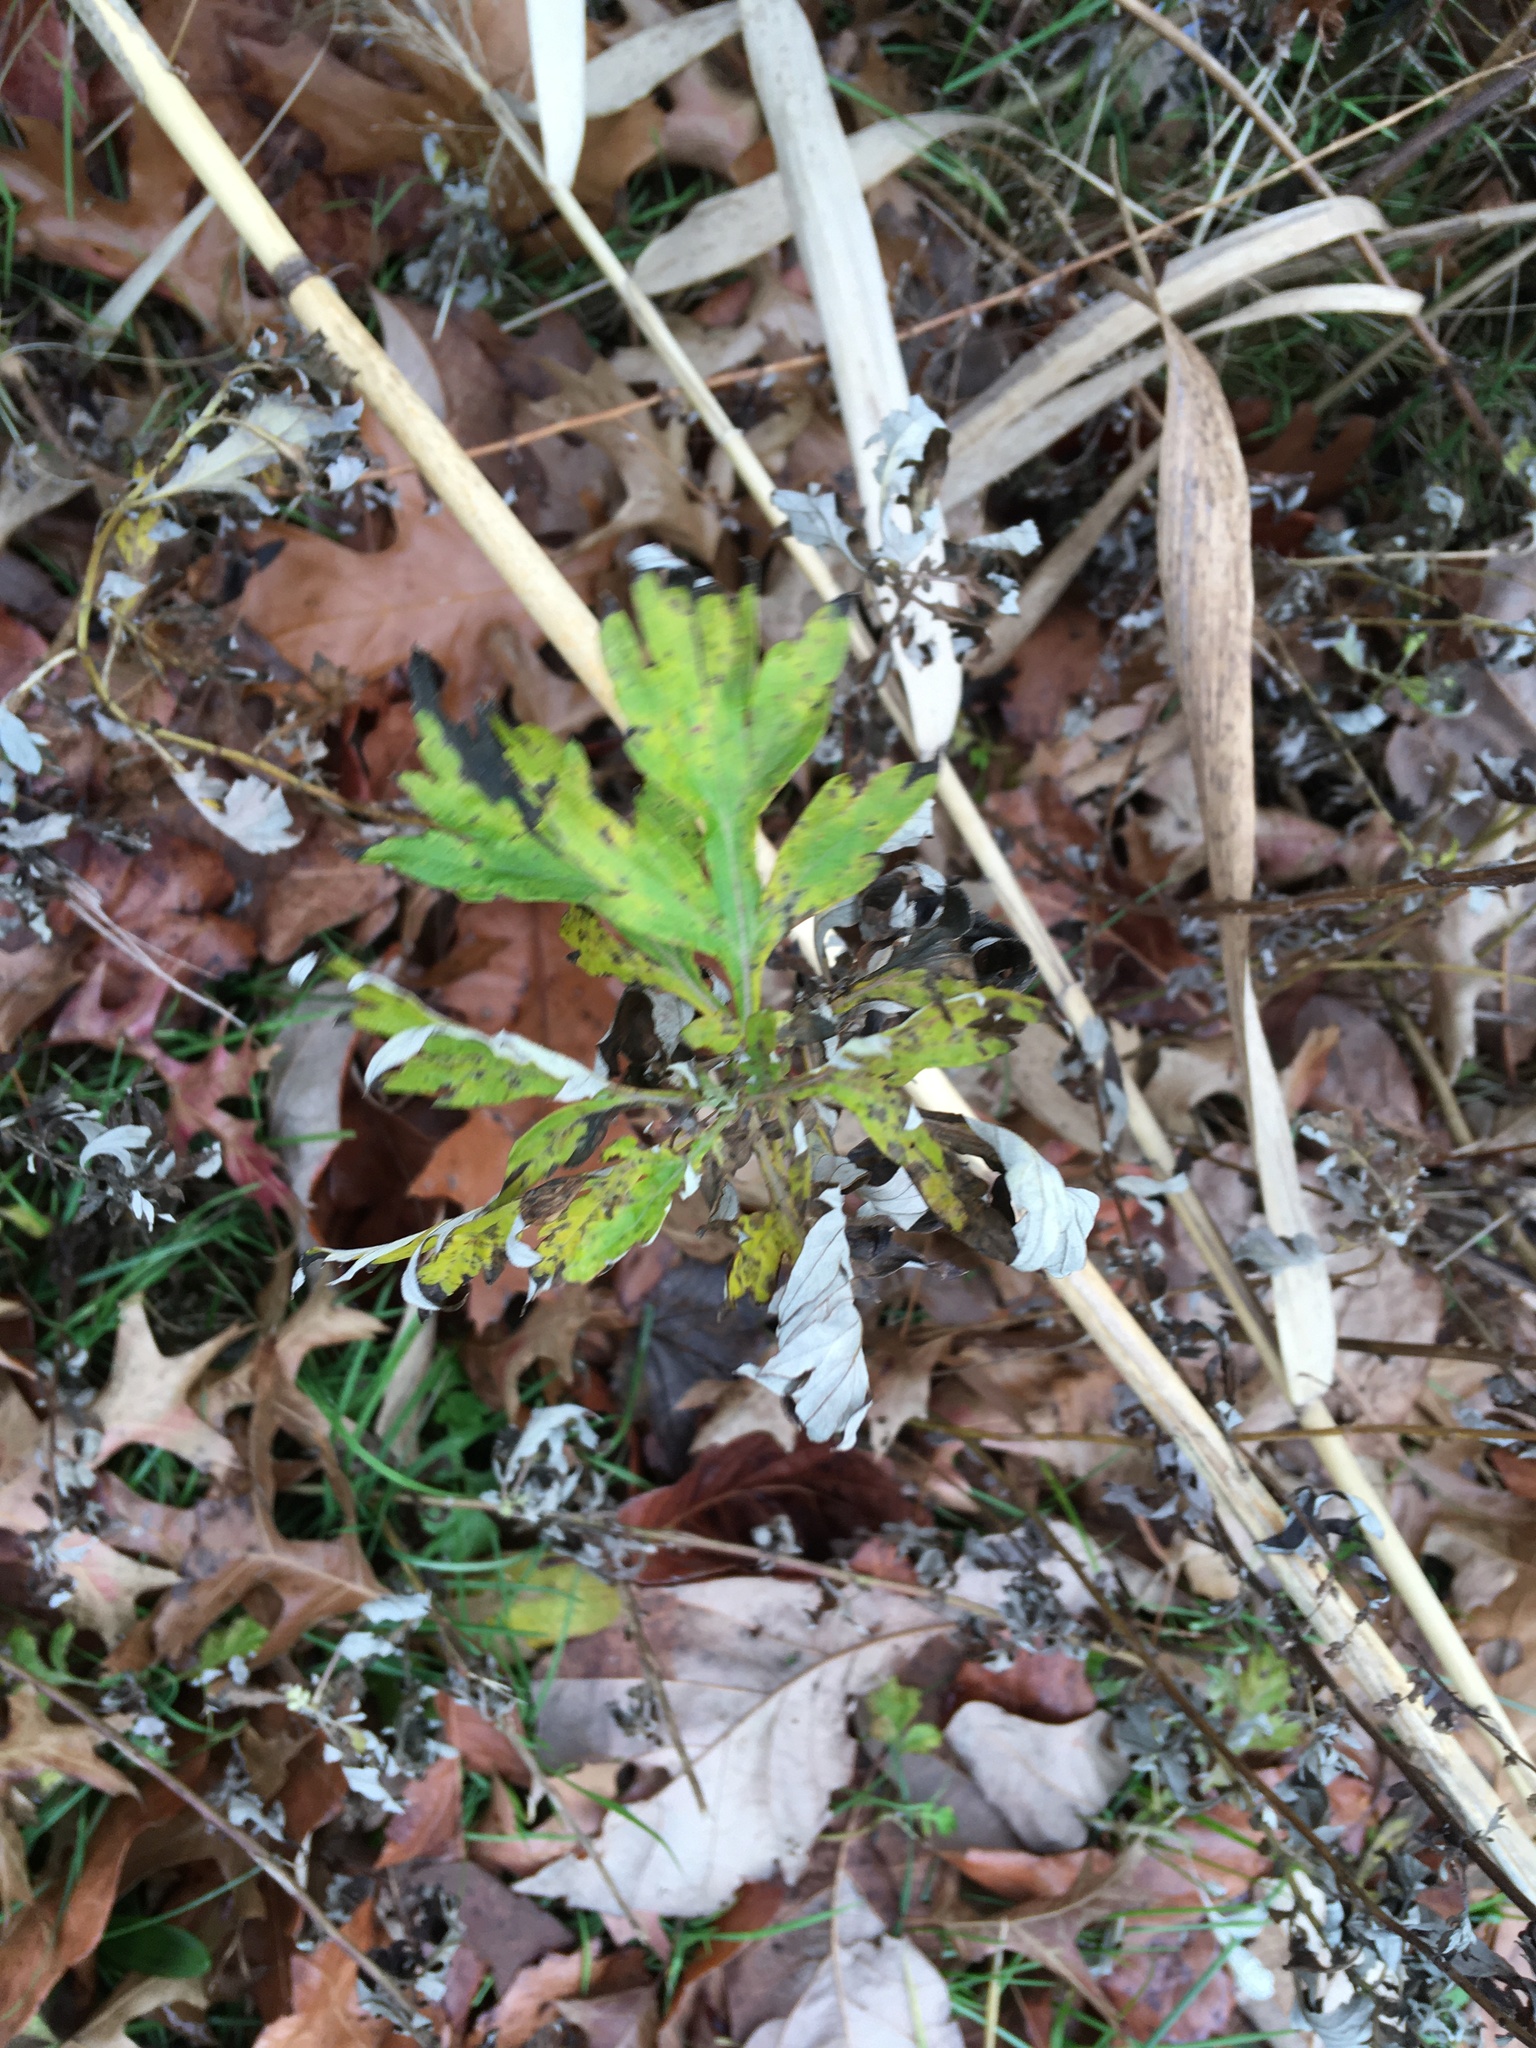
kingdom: Plantae
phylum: Tracheophyta
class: Magnoliopsida
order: Asterales
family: Asteraceae
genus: Artemisia
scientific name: Artemisia vulgaris
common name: Mugwort
